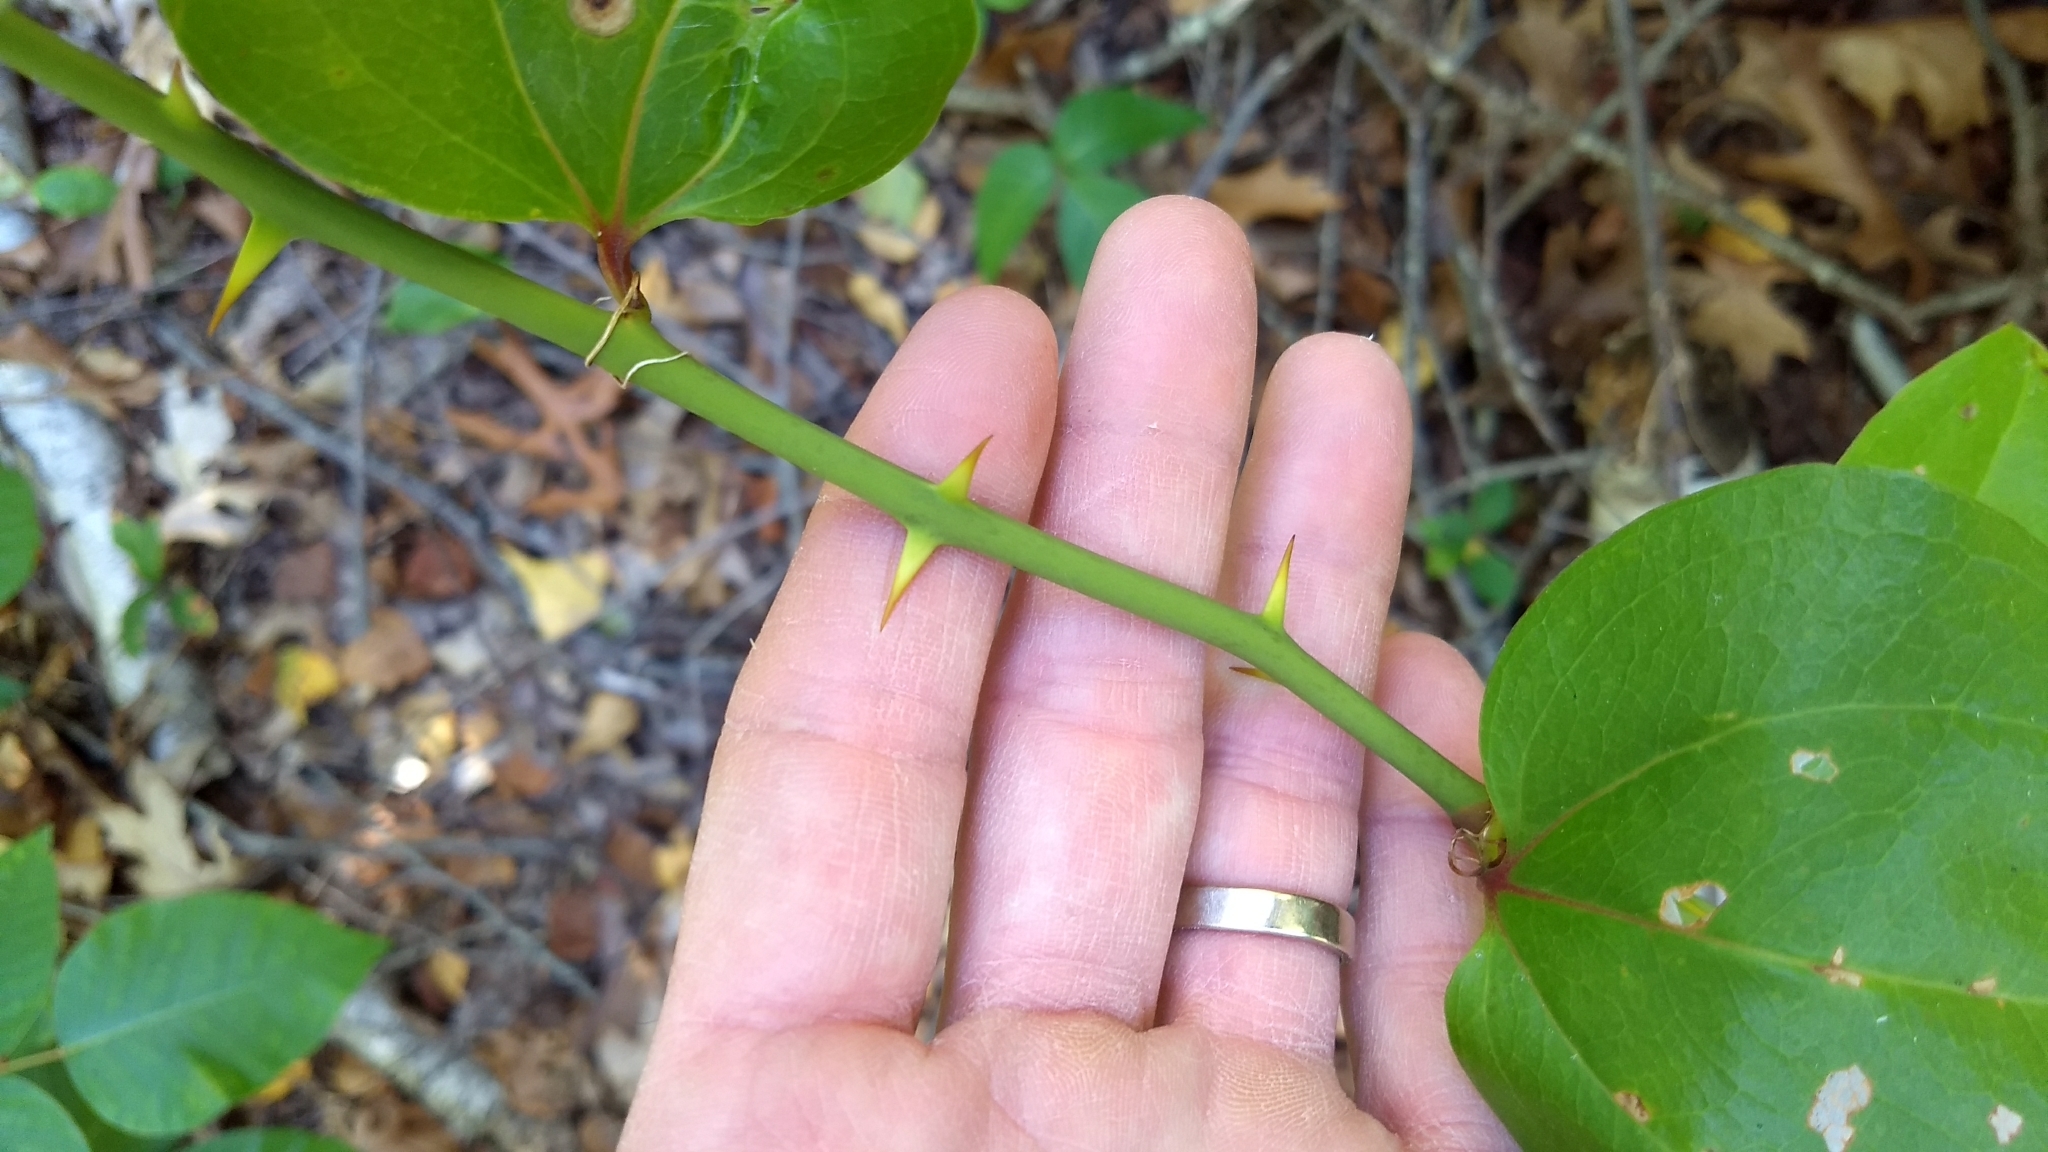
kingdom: Plantae
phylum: Tracheophyta
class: Liliopsida
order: Liliales
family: Smilacaceae
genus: Smilax
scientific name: Smilax rotundifolia
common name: Bullbriar
